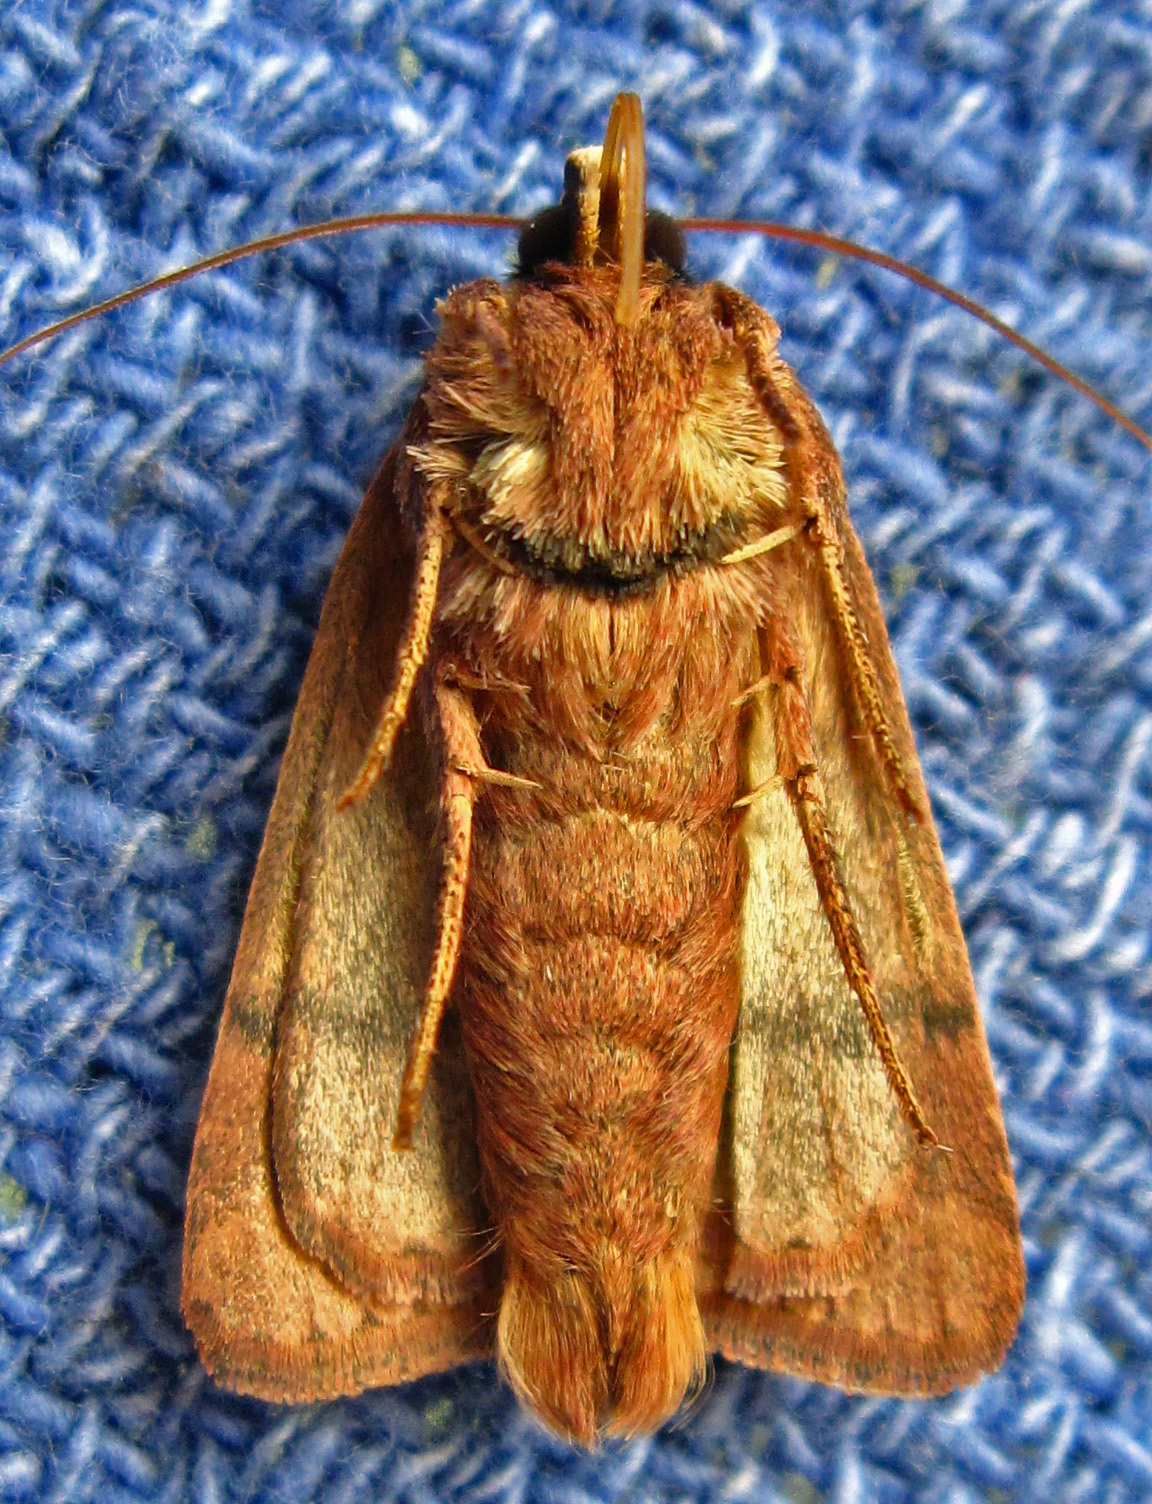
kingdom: Animalia
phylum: Arthropoda
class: Insecta
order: Lepidoptera
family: Noctuidae
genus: Orthodes
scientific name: Orthodes majuscula
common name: Rustic quaker
